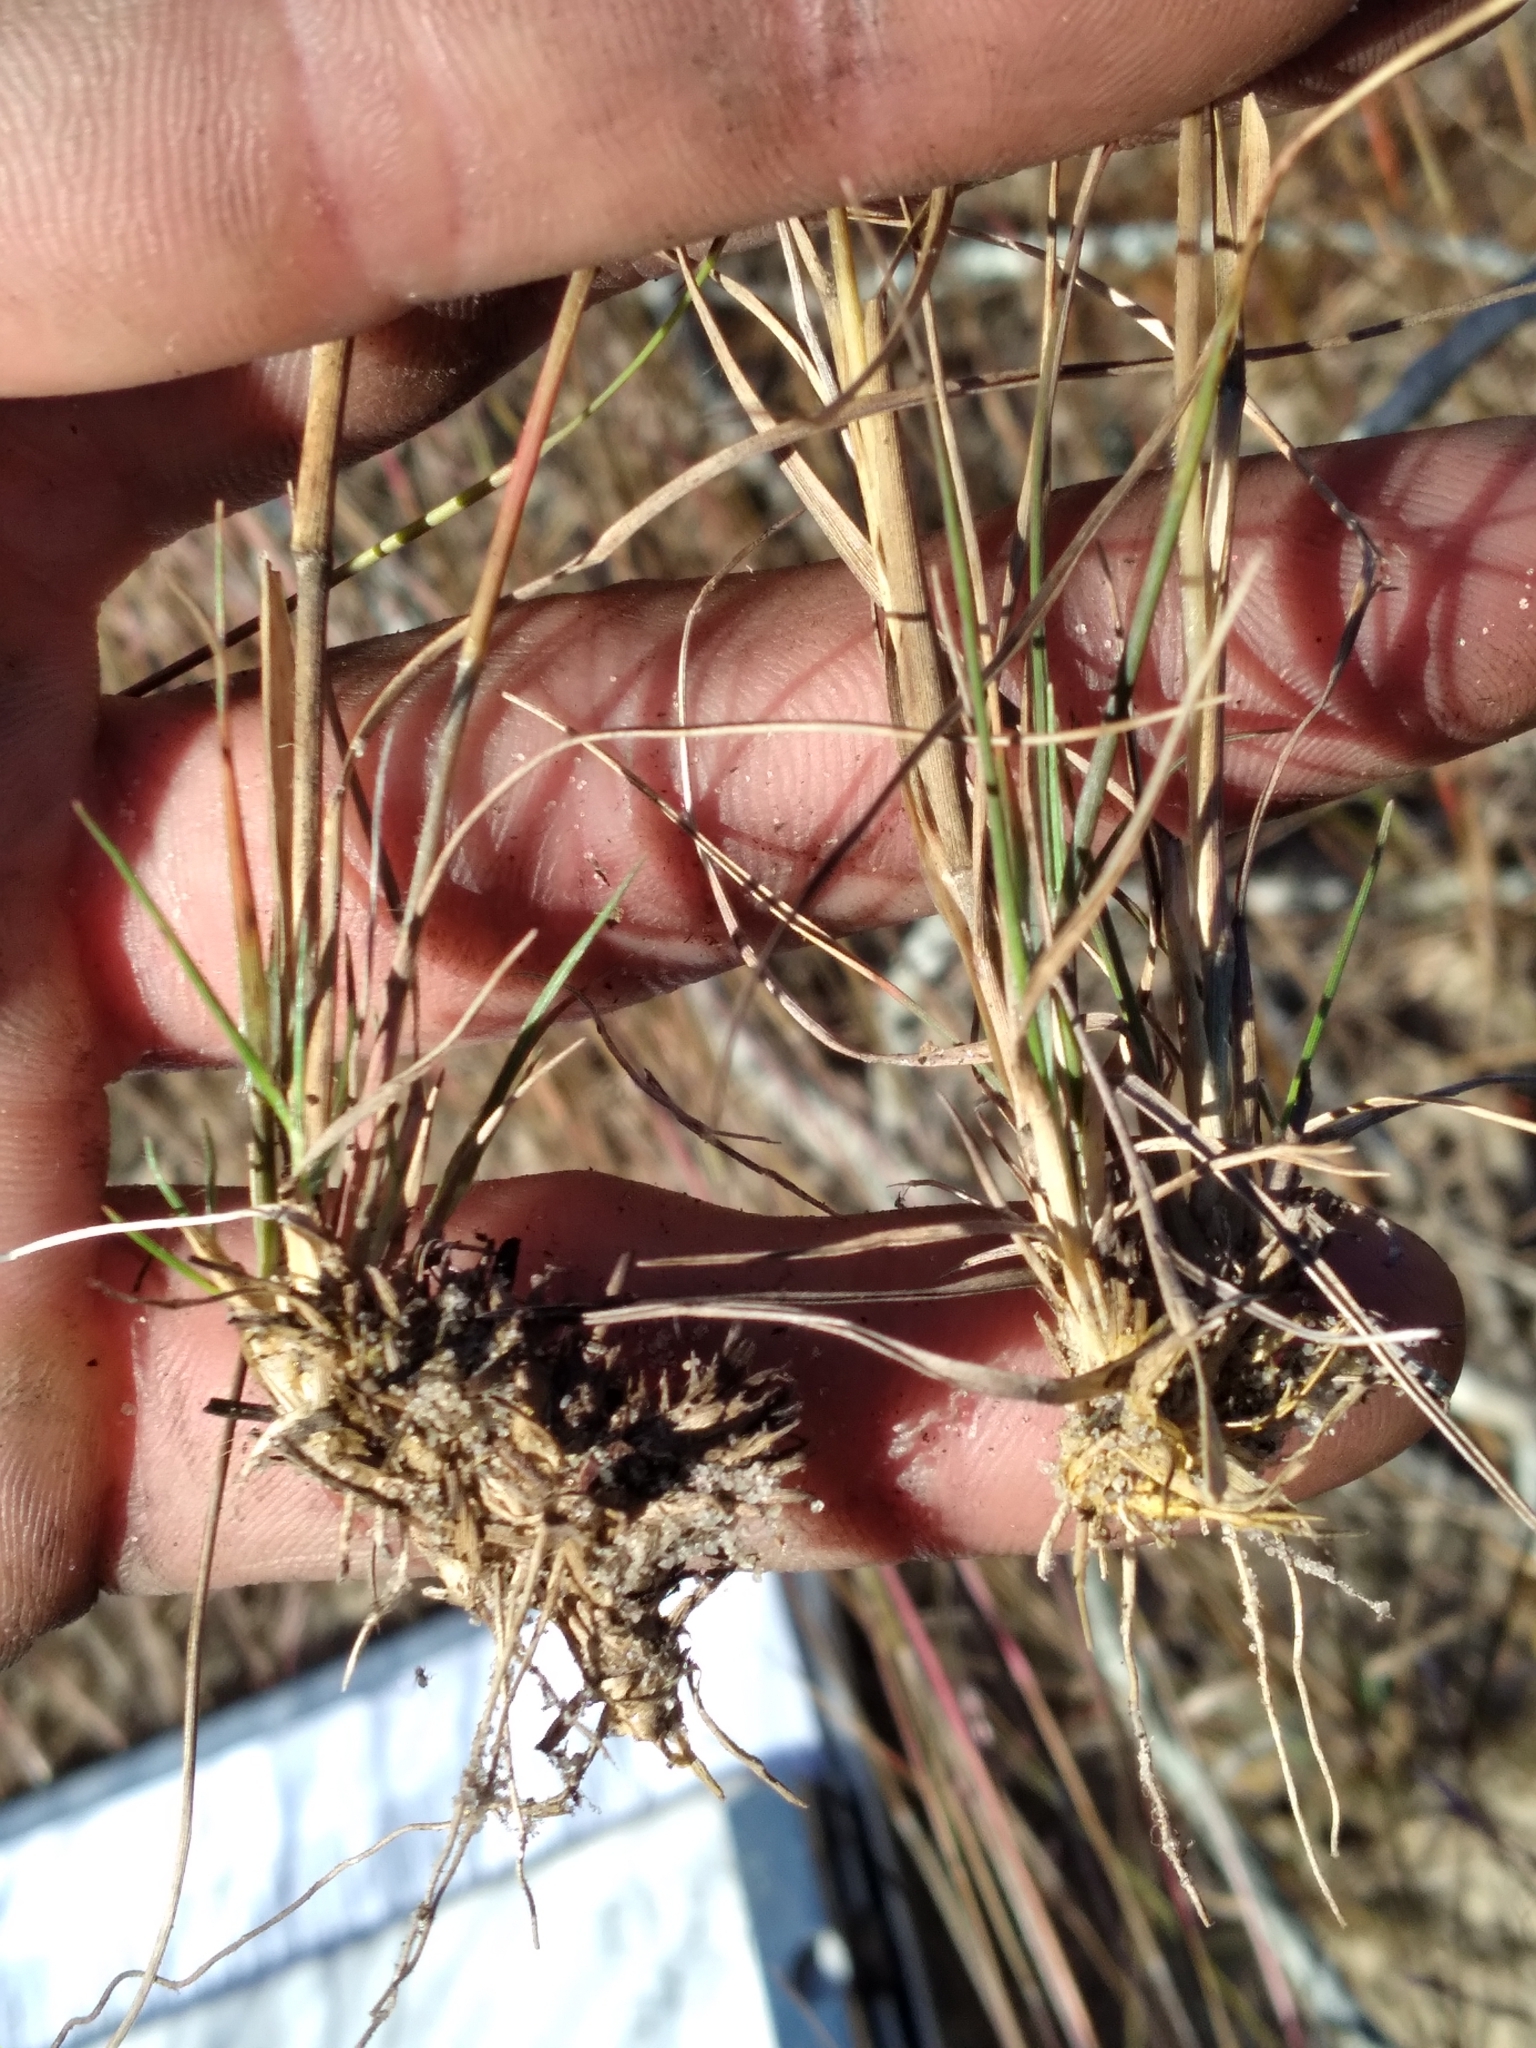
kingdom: Plantae
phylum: Tracheophyta
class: Liliopsida
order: Poales
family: Poaceae
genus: Triplasis
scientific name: Triplasis americana
